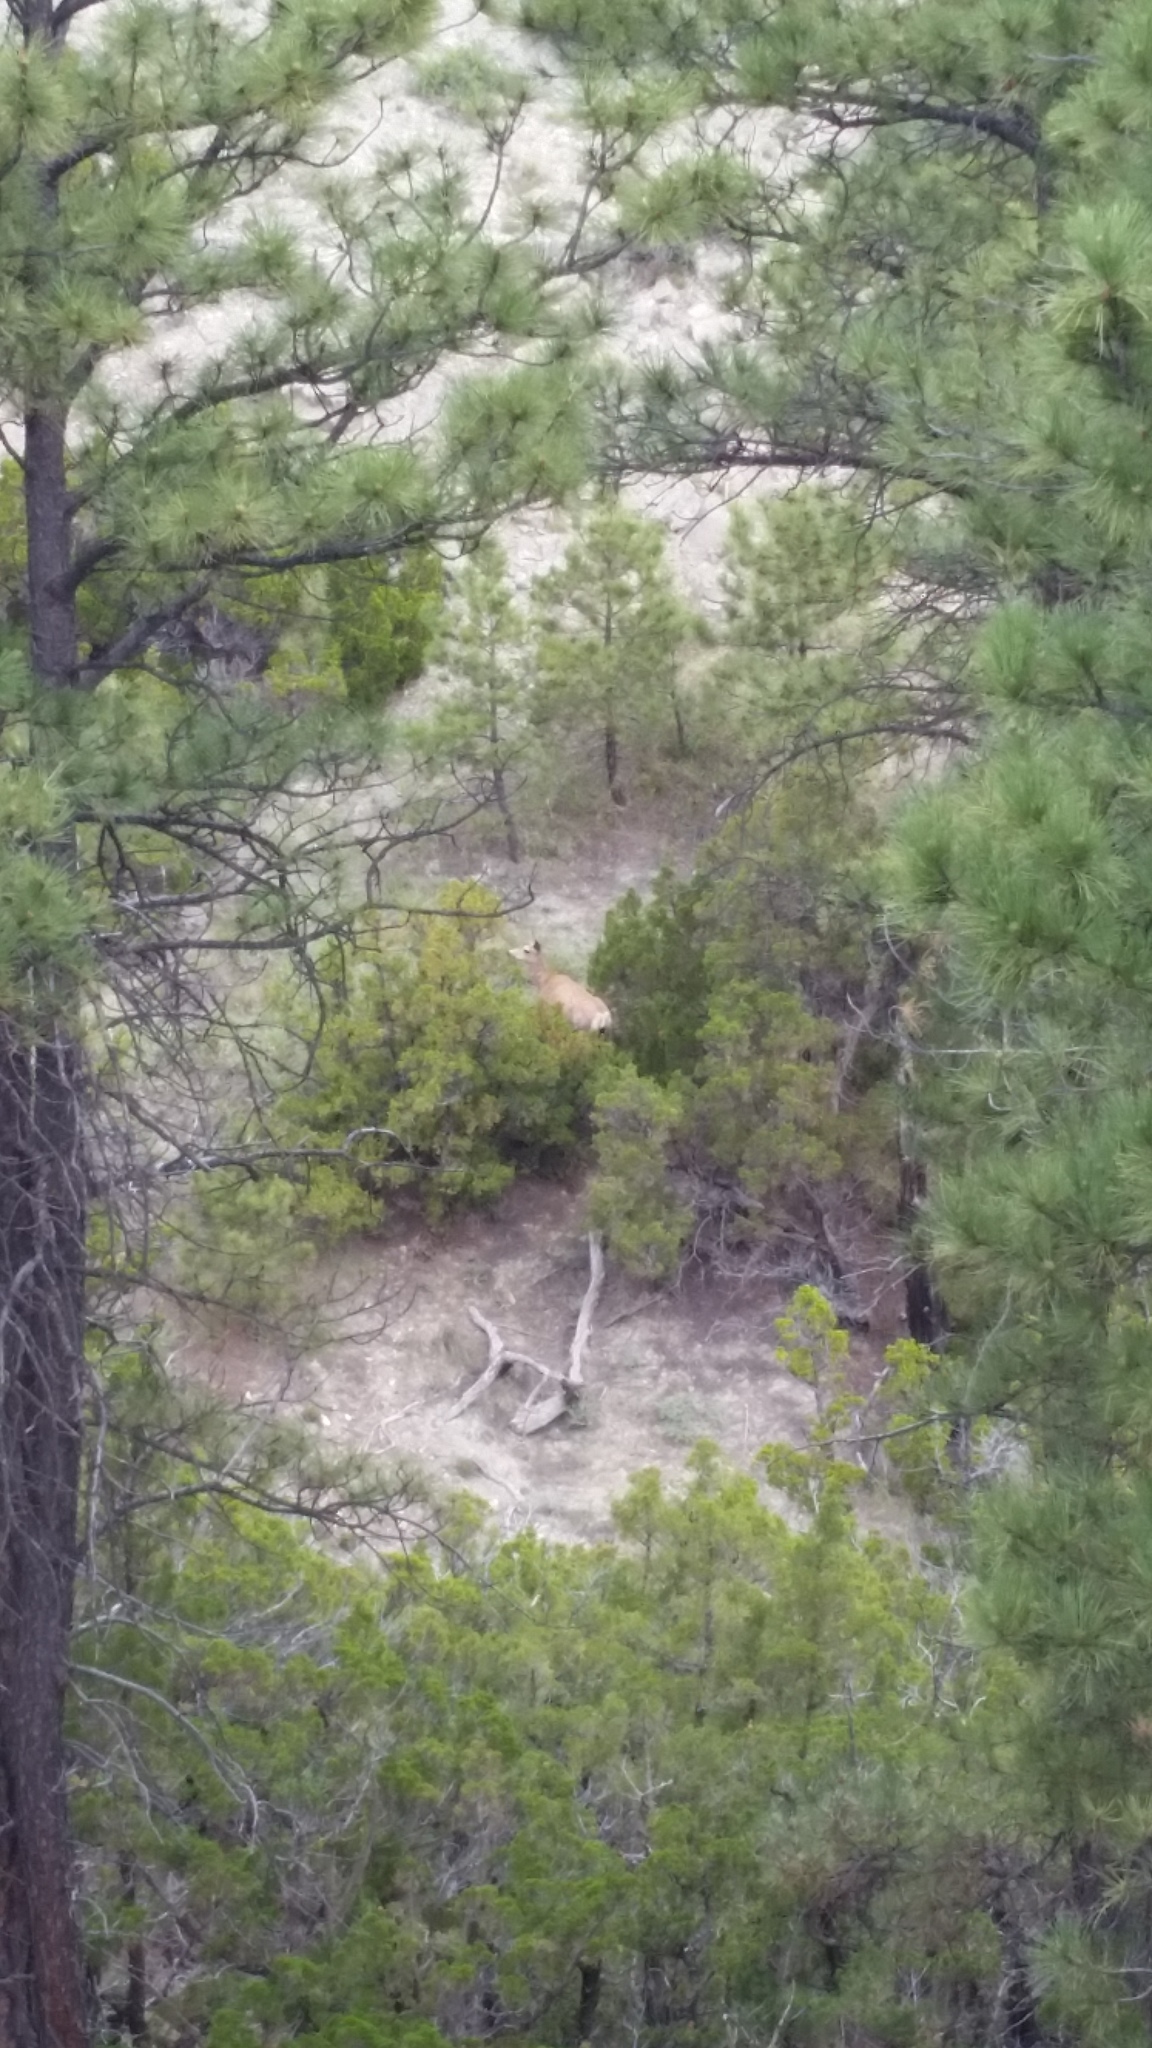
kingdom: Animalia
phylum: Chordata
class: Mammalia
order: Artiodactyla
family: Cervidae
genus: Odocoileus
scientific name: Odocoileus hemionus
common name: Mule deer
